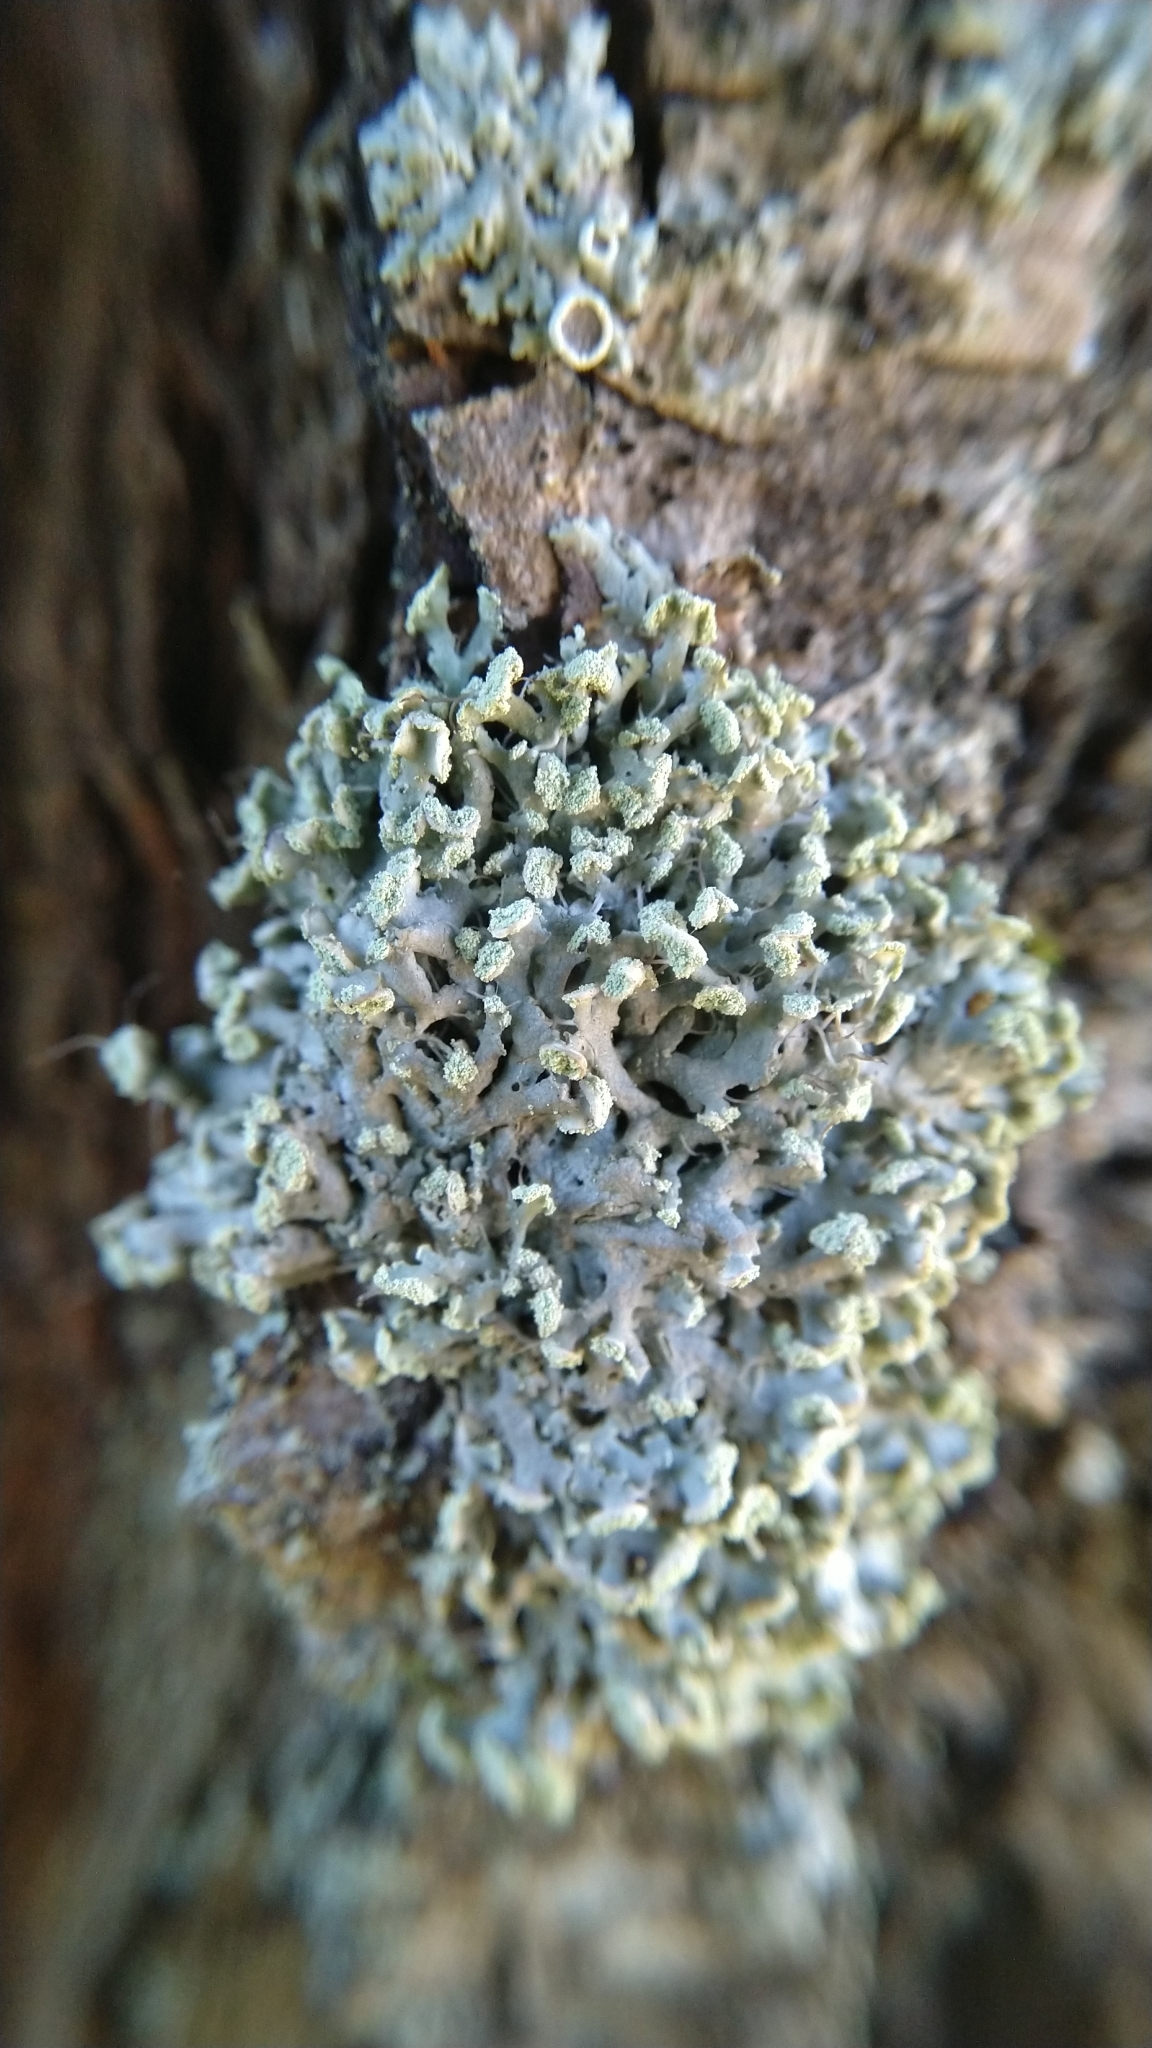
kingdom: Fungi
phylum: Ascomycota
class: Lecanoromycetes
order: Caliciales
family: Physciaceae
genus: Physcia
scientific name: Physcia tenella
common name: Fringed rosette lichen
